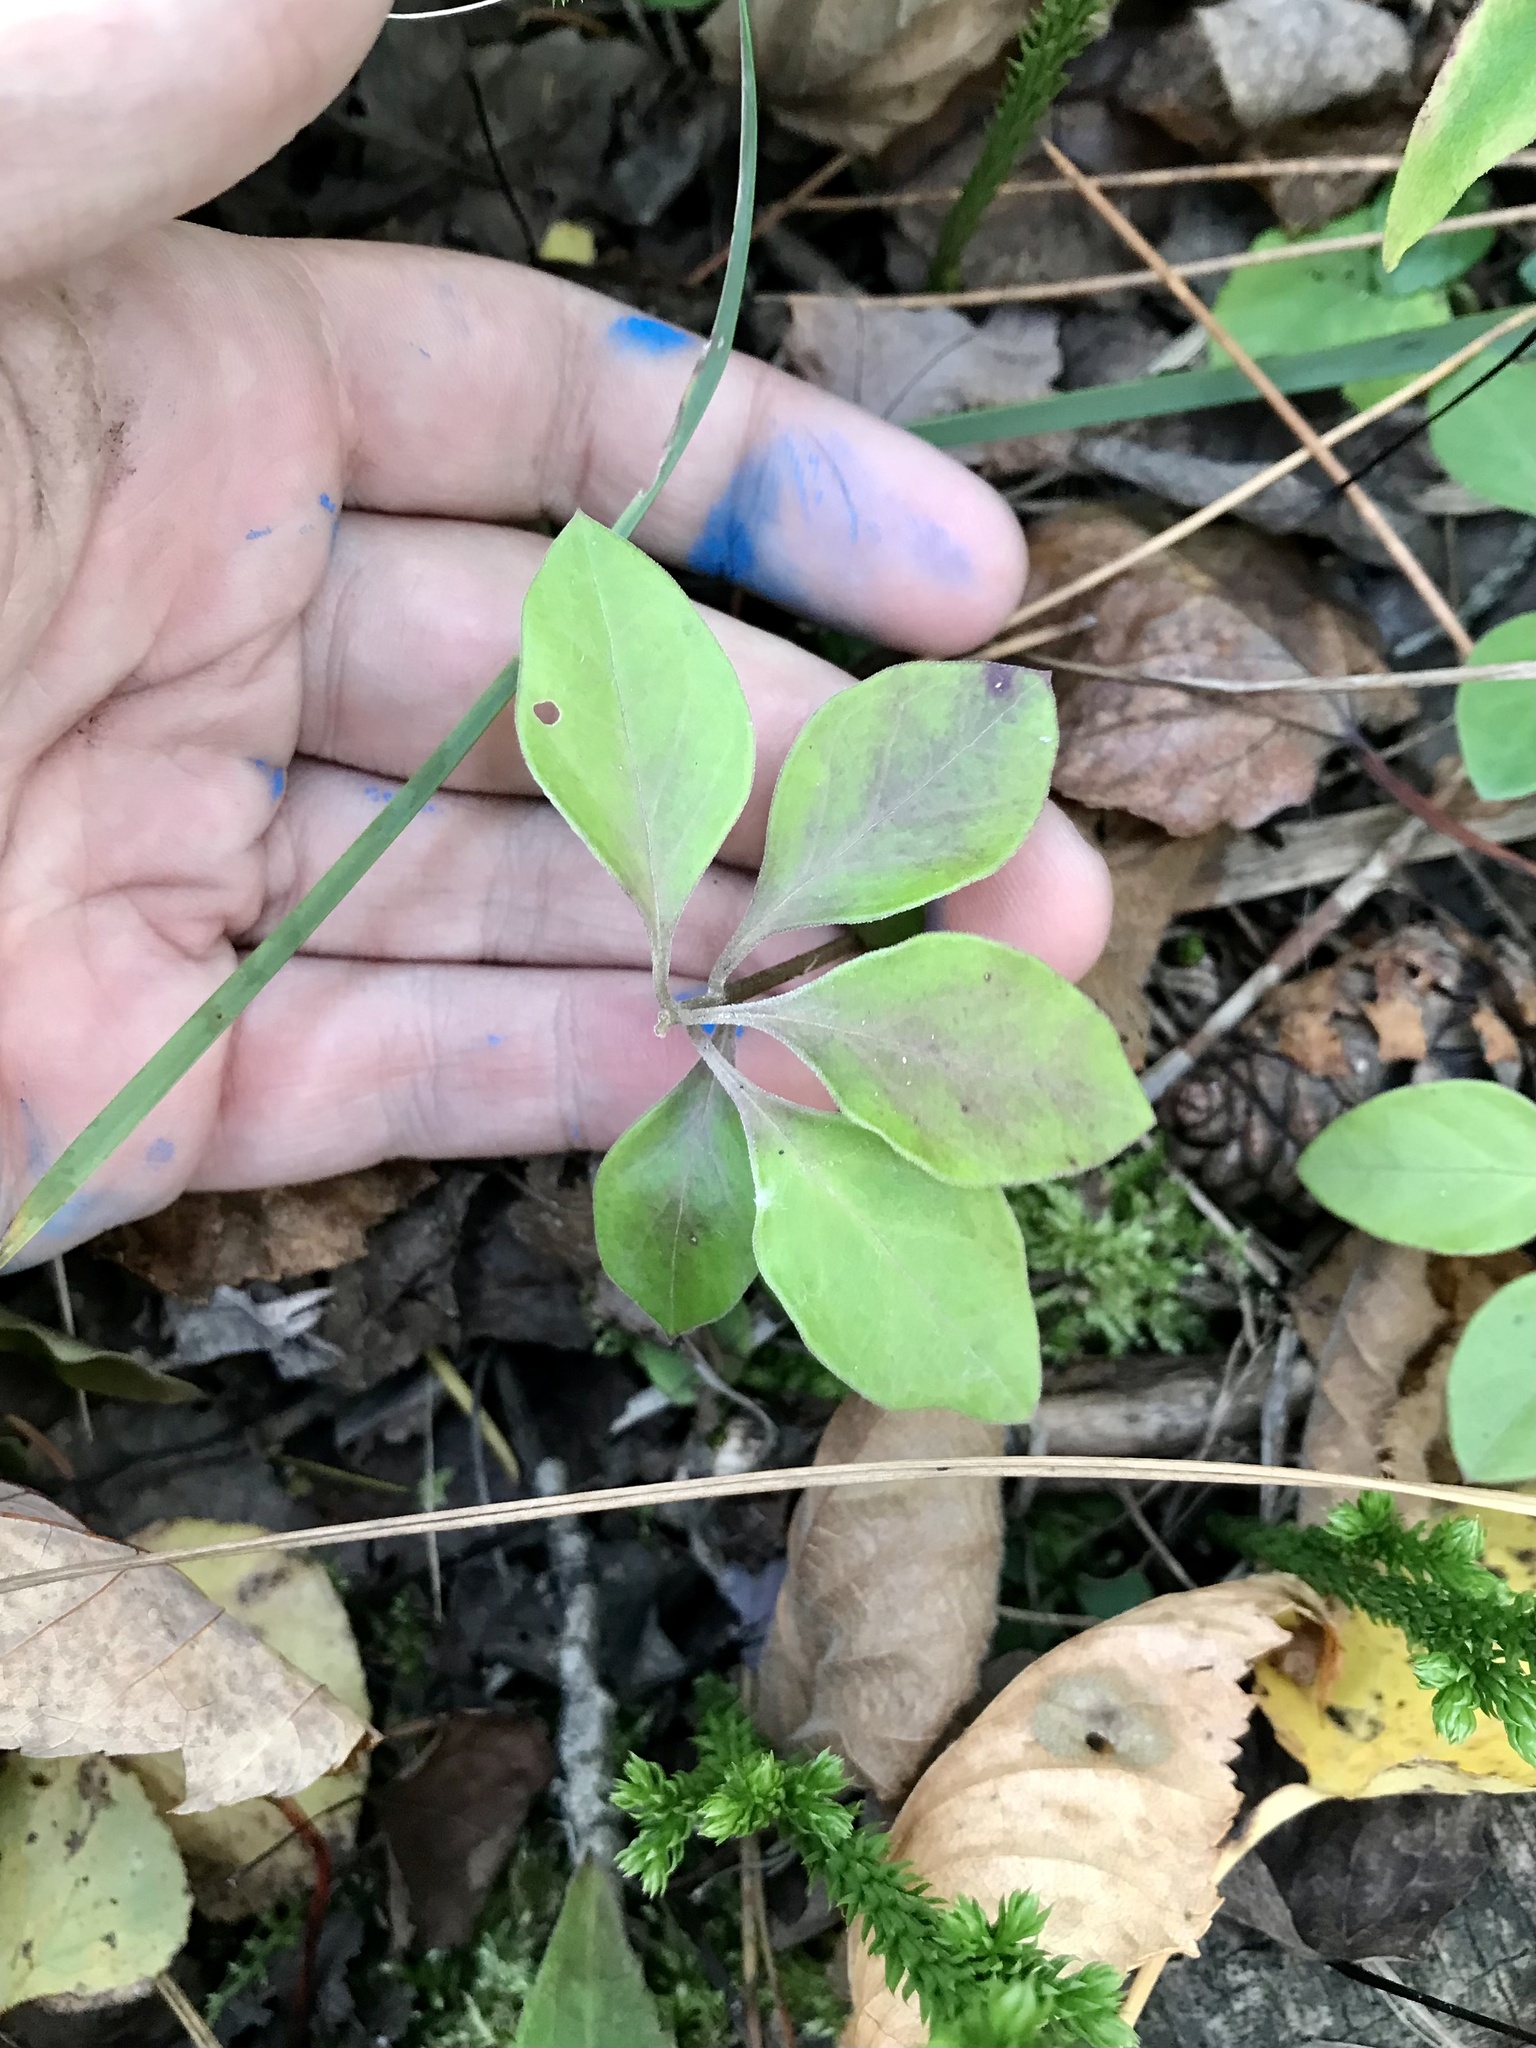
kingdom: Plantae
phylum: Tracheophyta
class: Magnoliopsida
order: Fabales
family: Polygalaceae
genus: Polygaloides
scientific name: Polygaloides paucifolia
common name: Bird-on-the-wing
